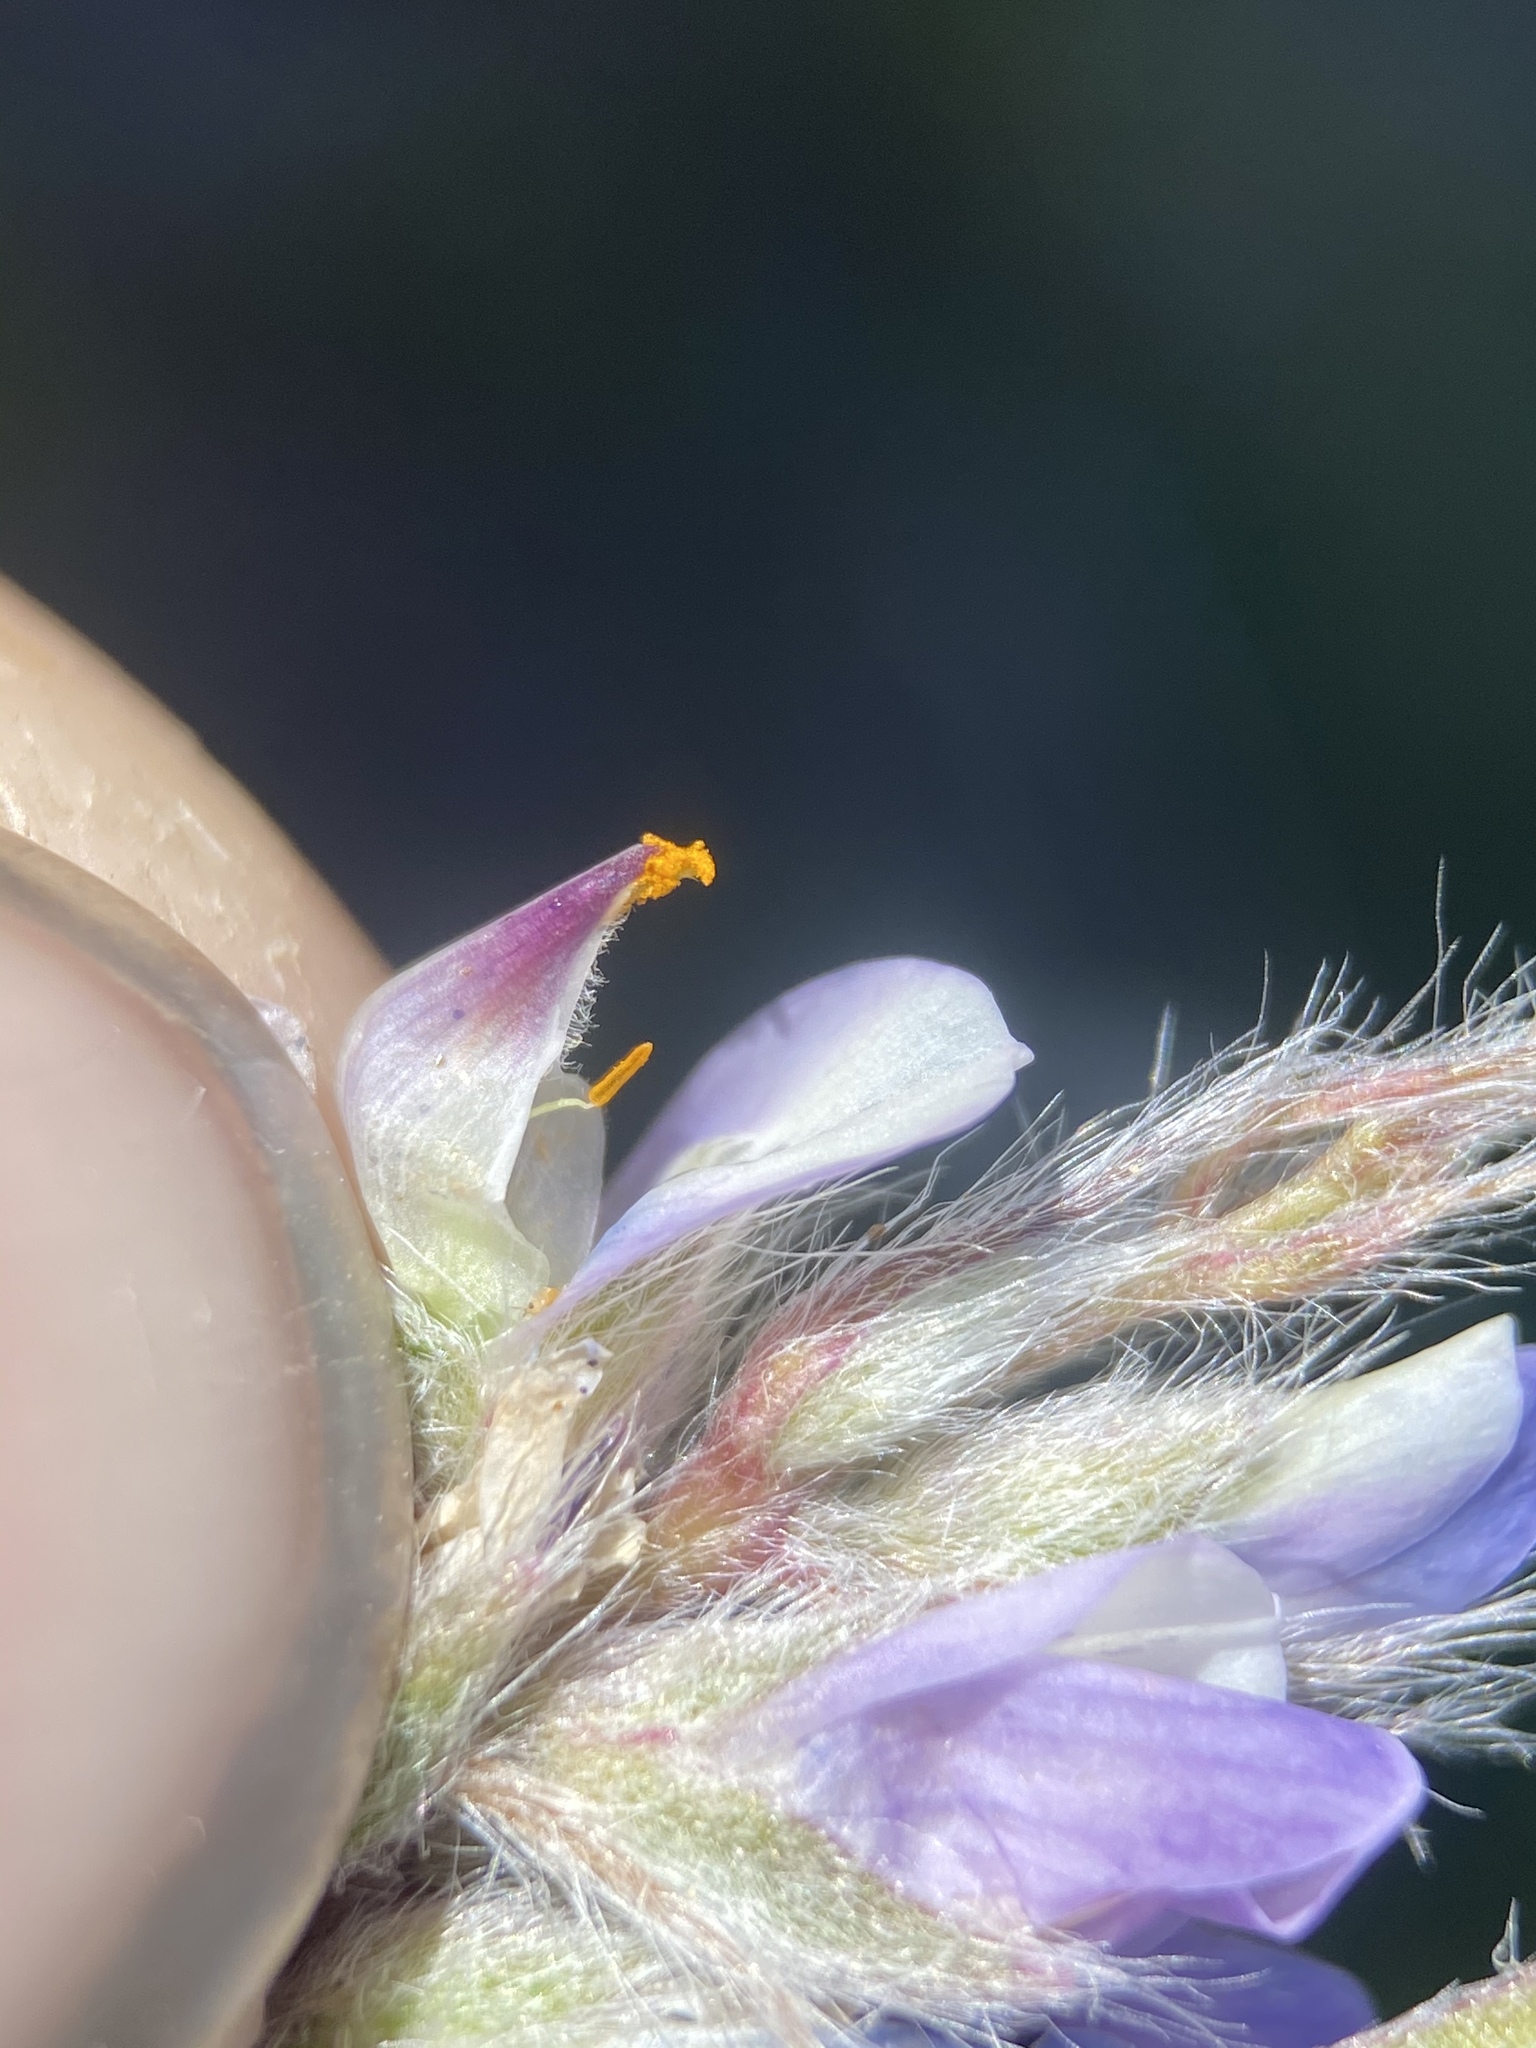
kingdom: Plantae
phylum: Tracheophyta
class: Magnoliopsida
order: Fabales
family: Fabaceae
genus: Lupinus
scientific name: Lupinus caespitosus
